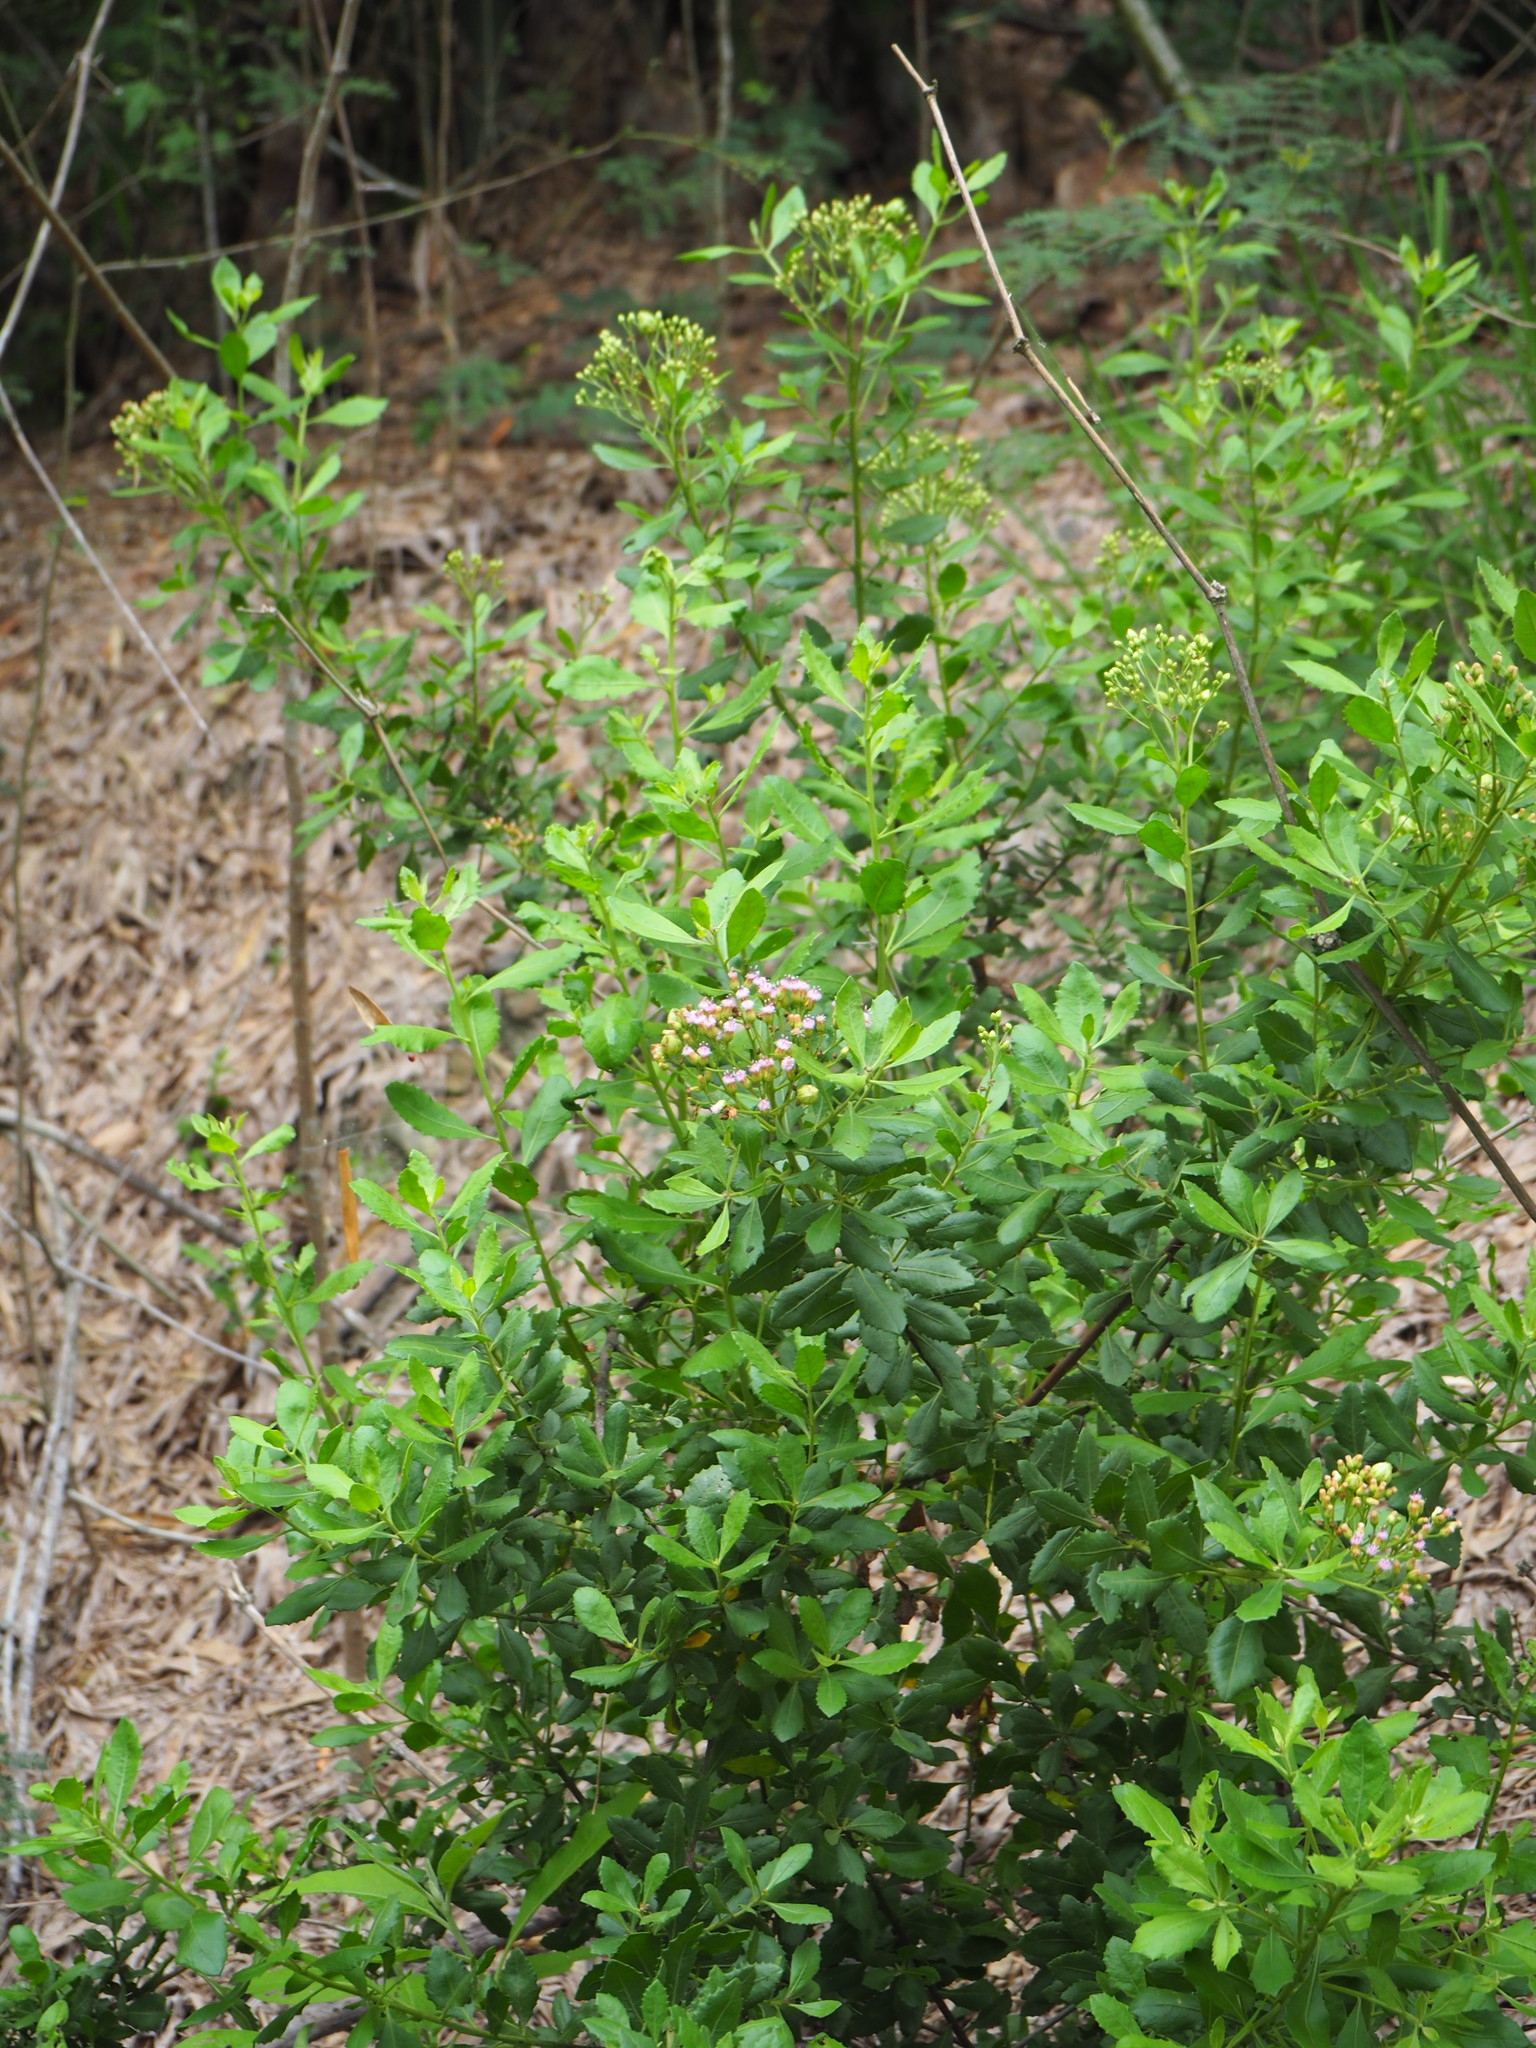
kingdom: Plantae
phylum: Tracheophyta
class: Magnoliopsida
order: Asterales
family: Asteraceae
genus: Pluchea
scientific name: Pluchea indica
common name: Indian fleabane
